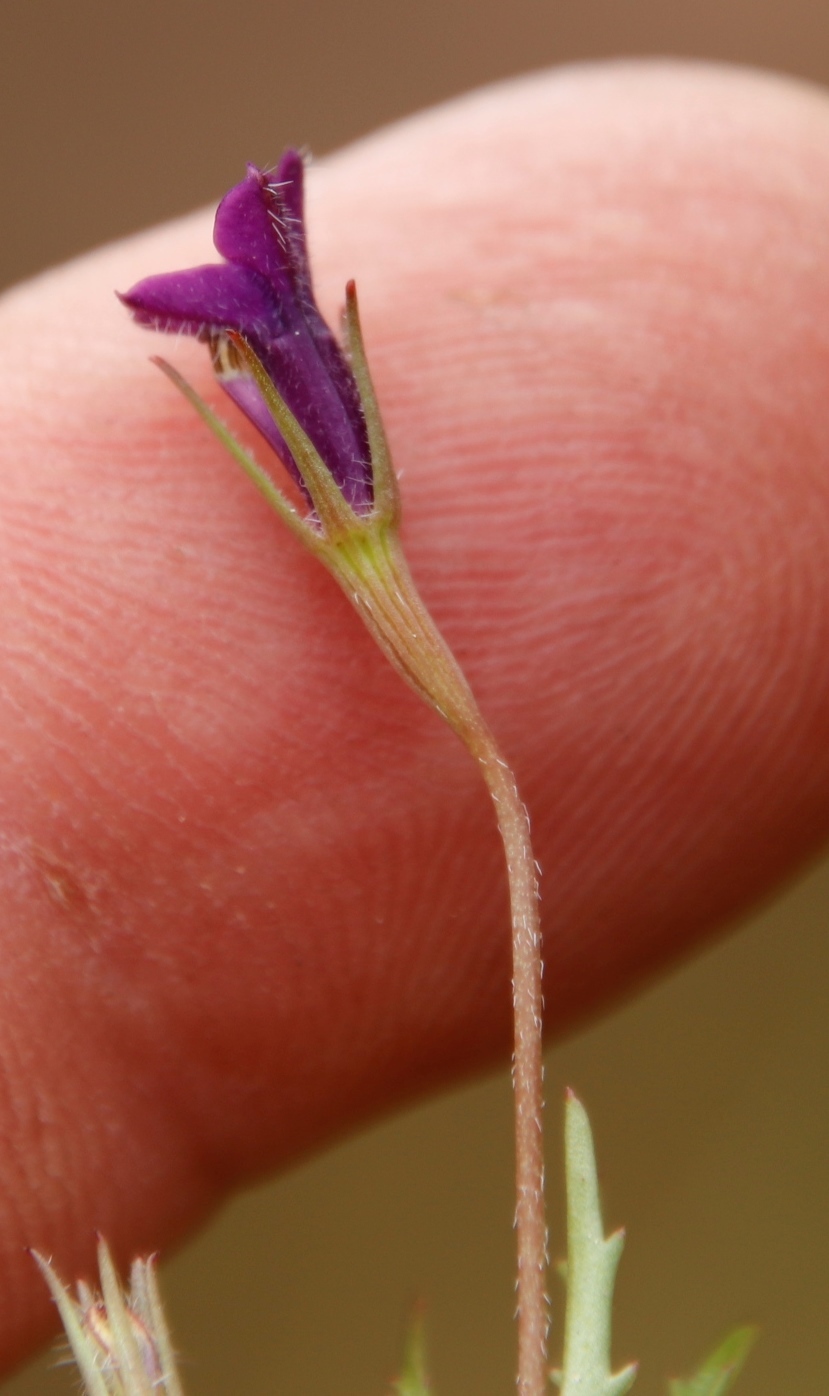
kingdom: Plantae
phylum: Tracheophyta
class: Magnoliopsida
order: Asterales
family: Campanulaceae
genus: Monopsis
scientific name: Monopsis debilis
